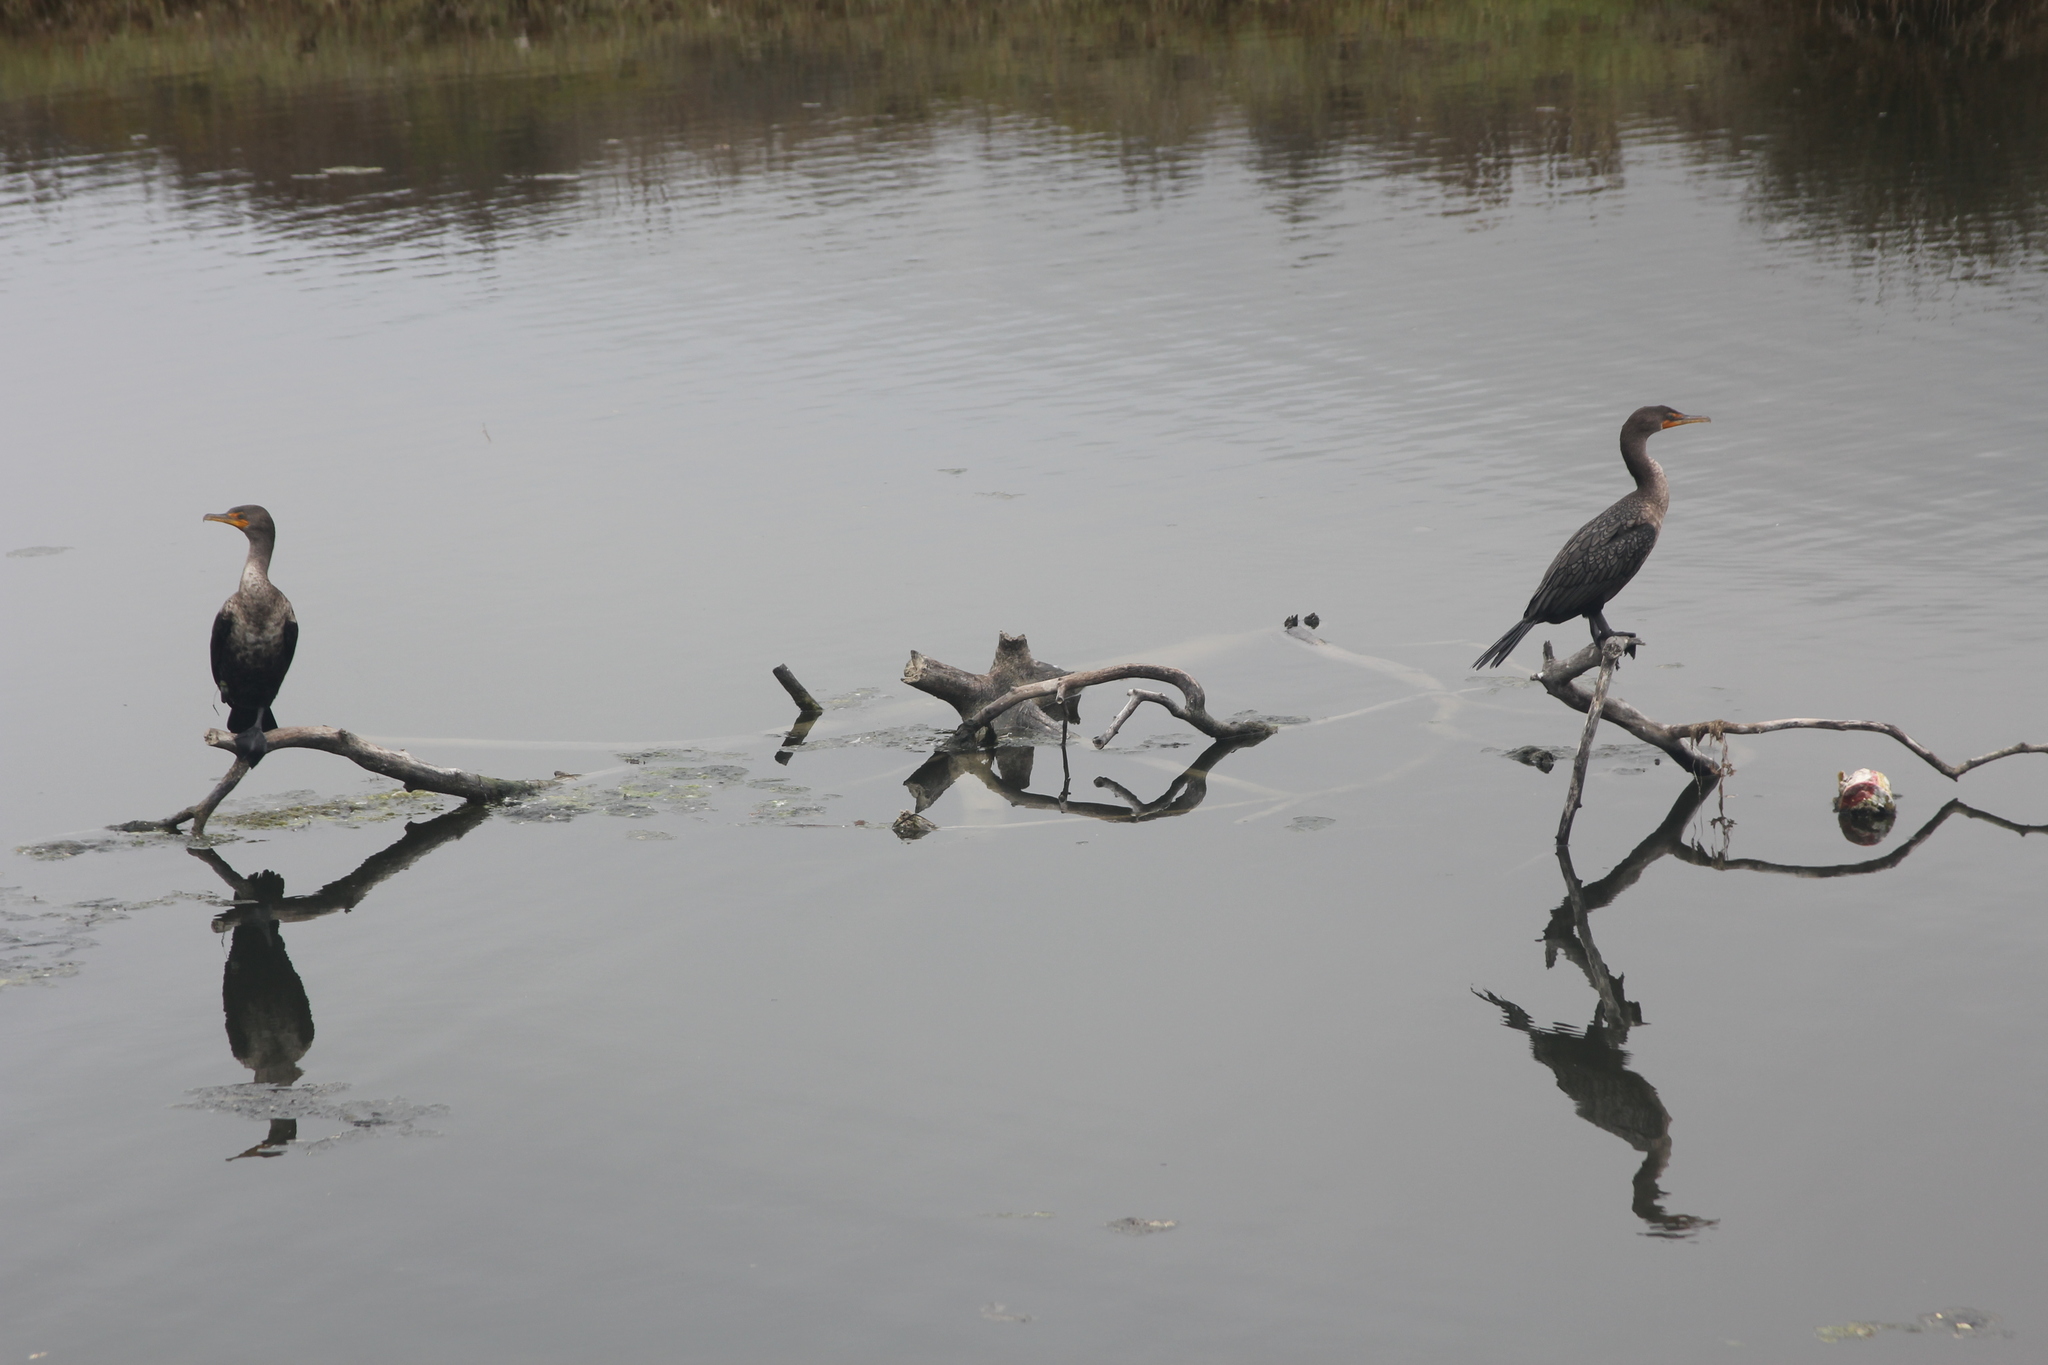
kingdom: Animalia
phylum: Chordata
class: Aves
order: Suliformes
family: Phalacrocoracidae
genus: Phalacrocorax
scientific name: Phalacrocorax auritus
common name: Double-crested cormorant
